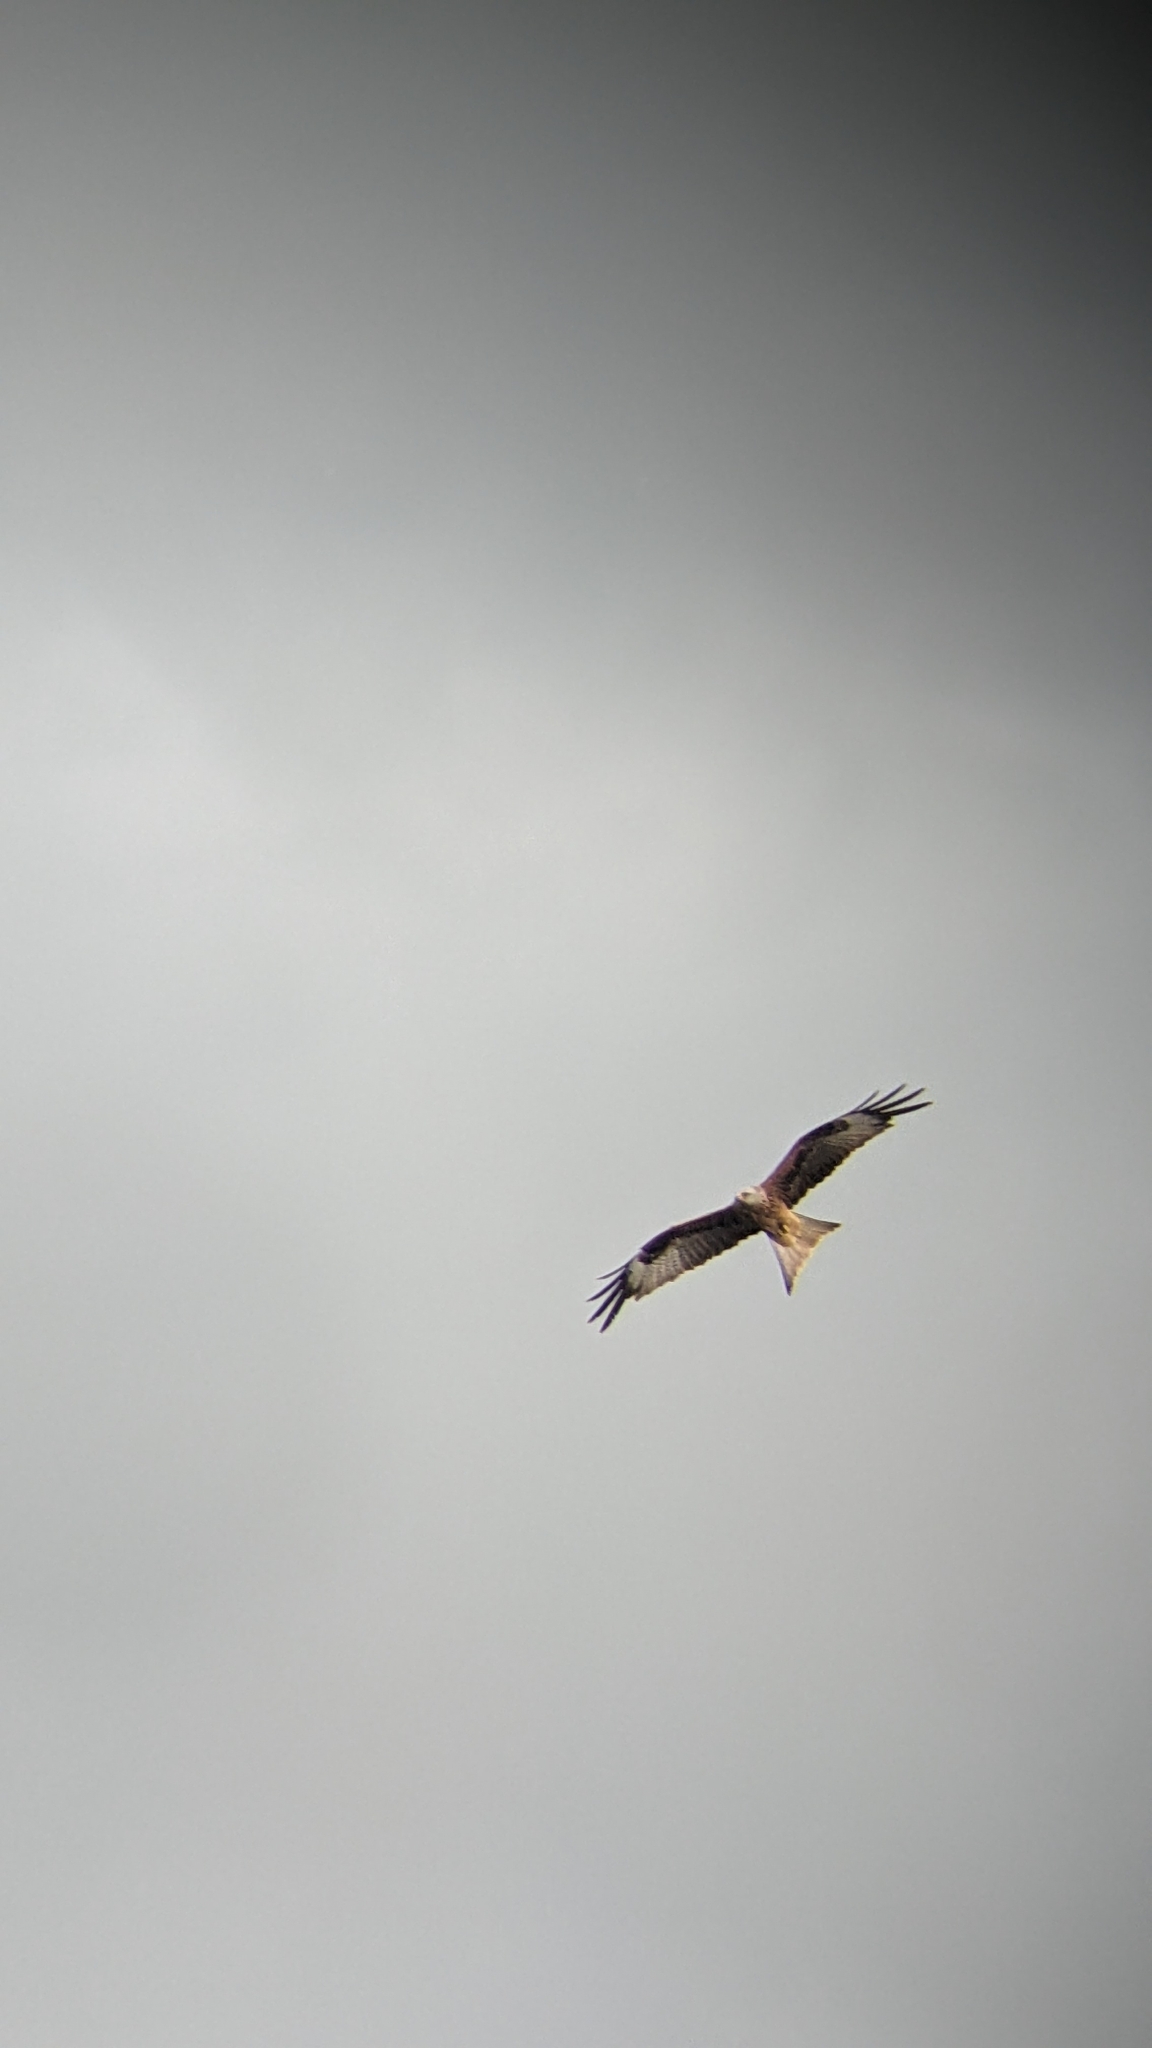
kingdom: Animalia
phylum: Chordata
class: Aves
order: Accipitriformes
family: Accipitridae
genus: Milvus
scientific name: Milvus milvus
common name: Red kite
